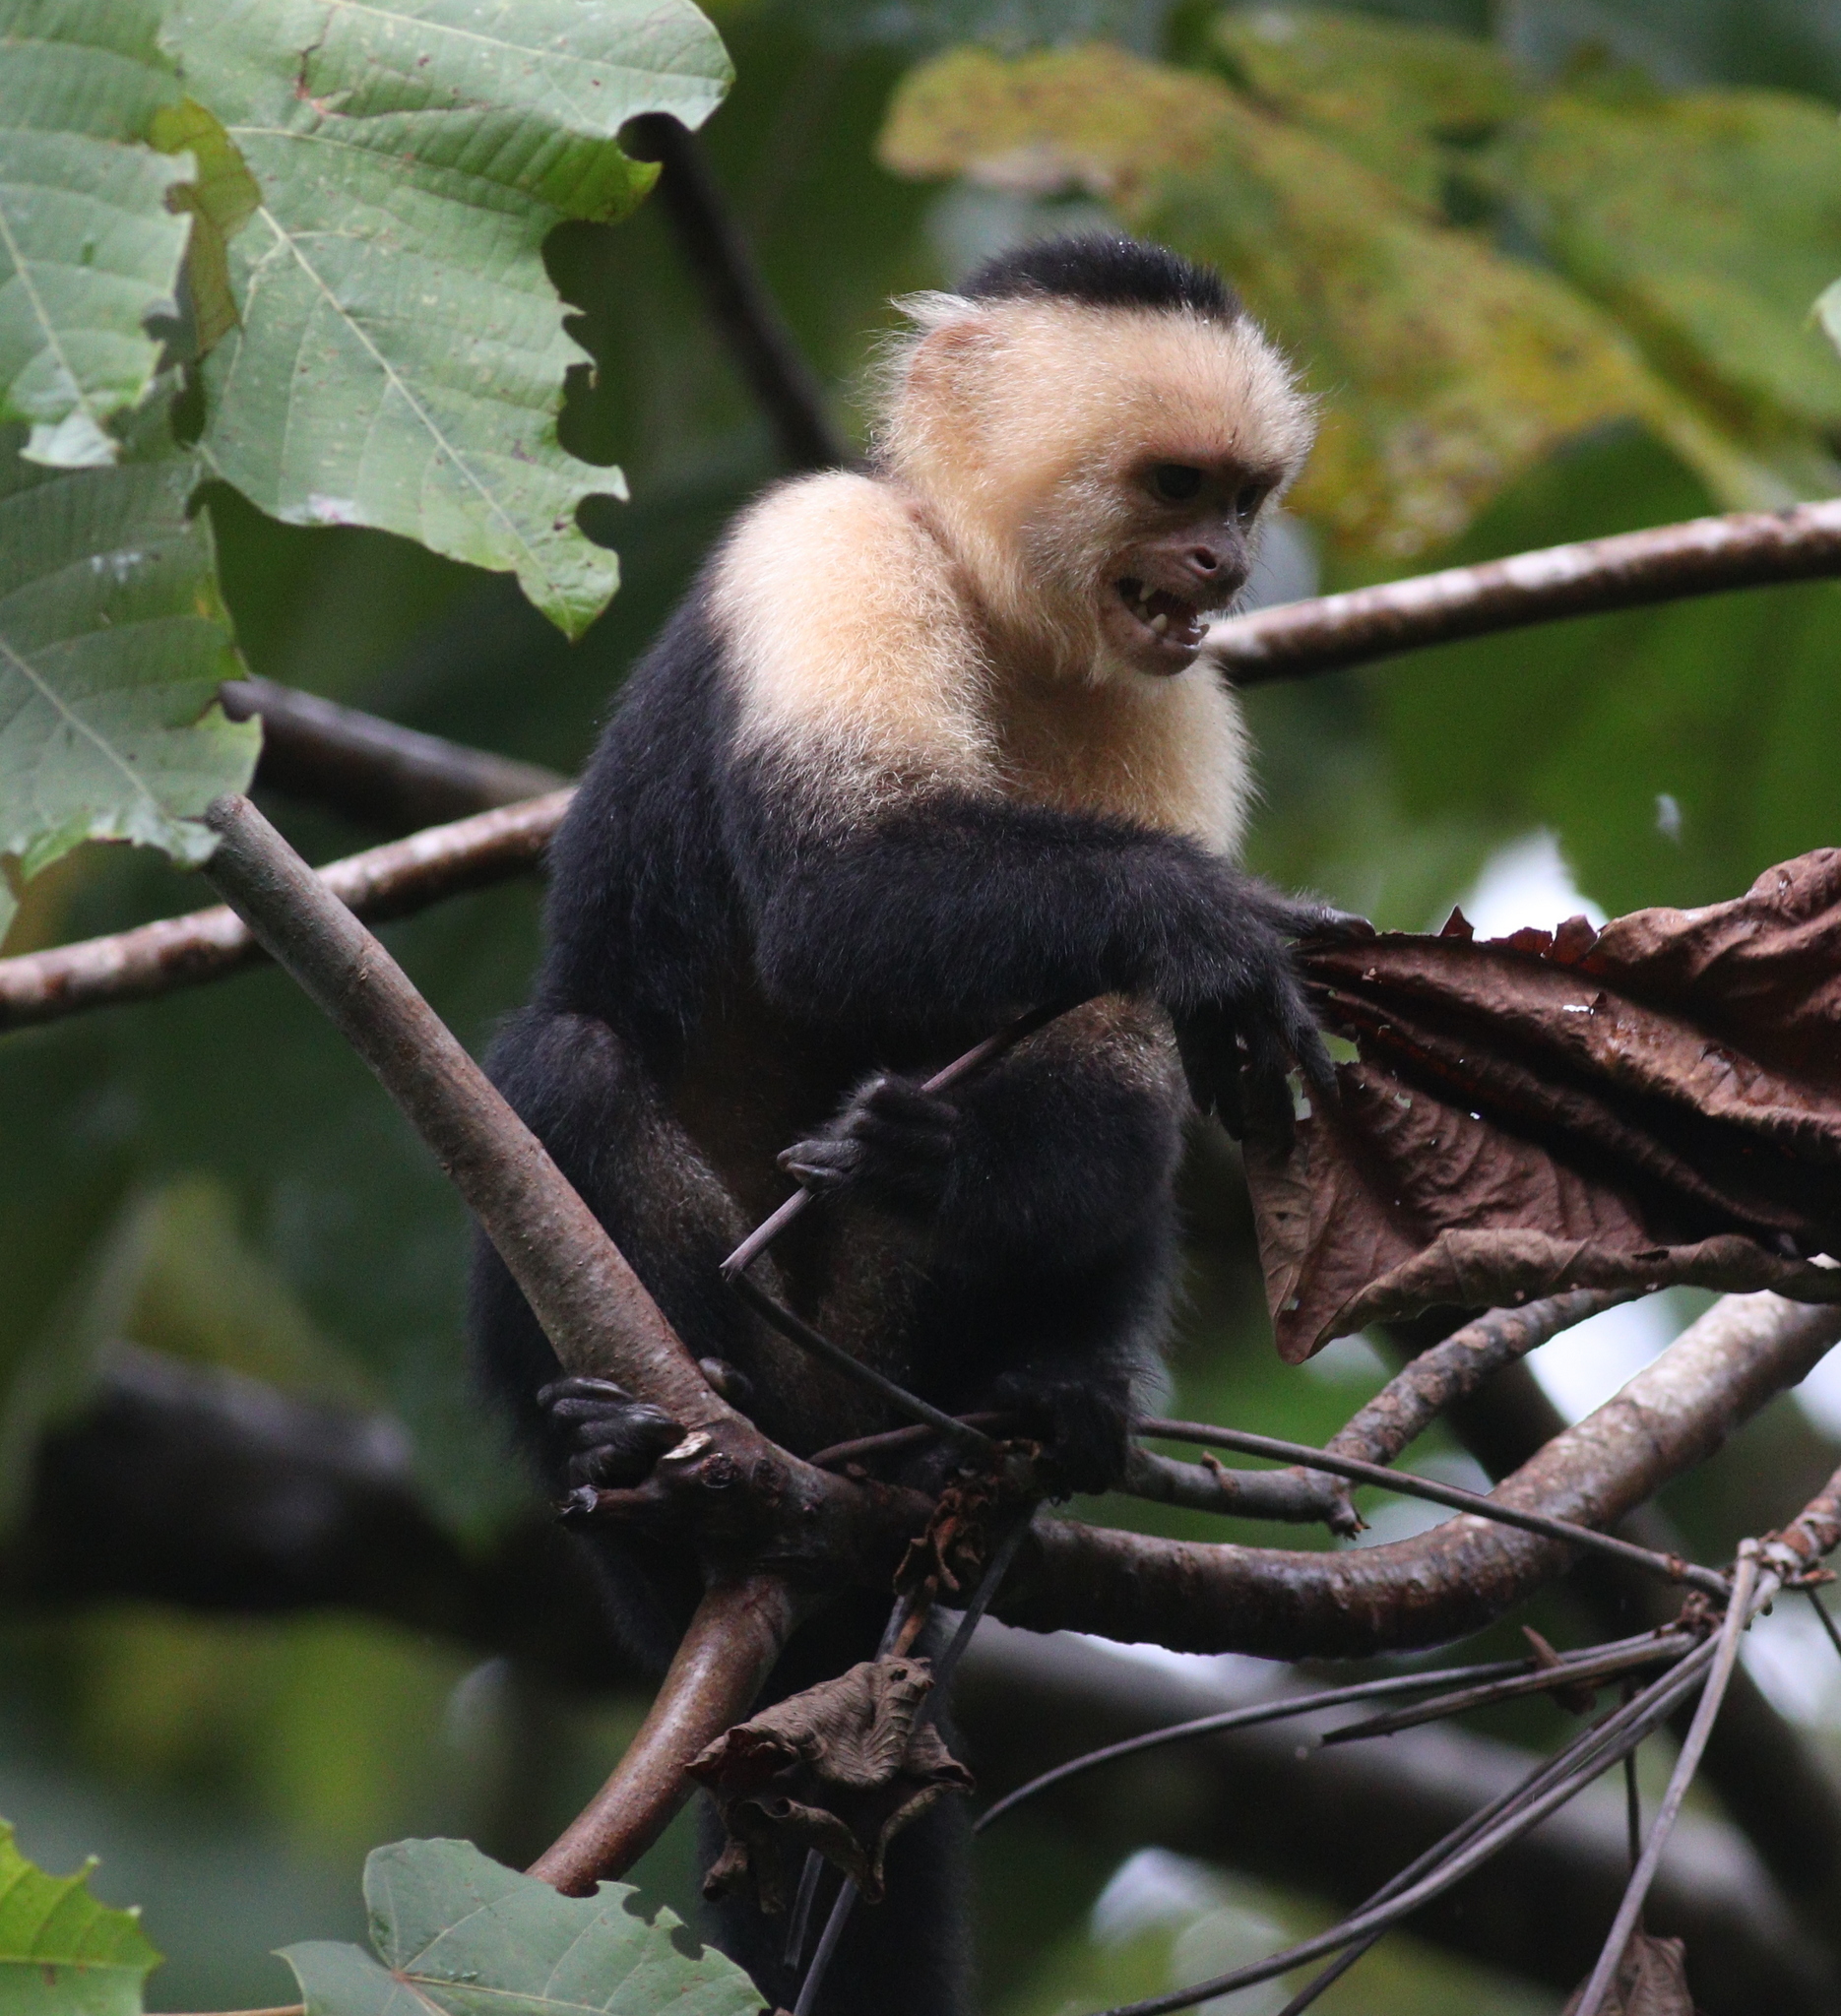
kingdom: Animalia
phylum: Chordata
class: Mammalia
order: Primates
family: Cebidae
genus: Cebus
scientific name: Cebus imitator
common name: Panamanian white-faced capuchin
